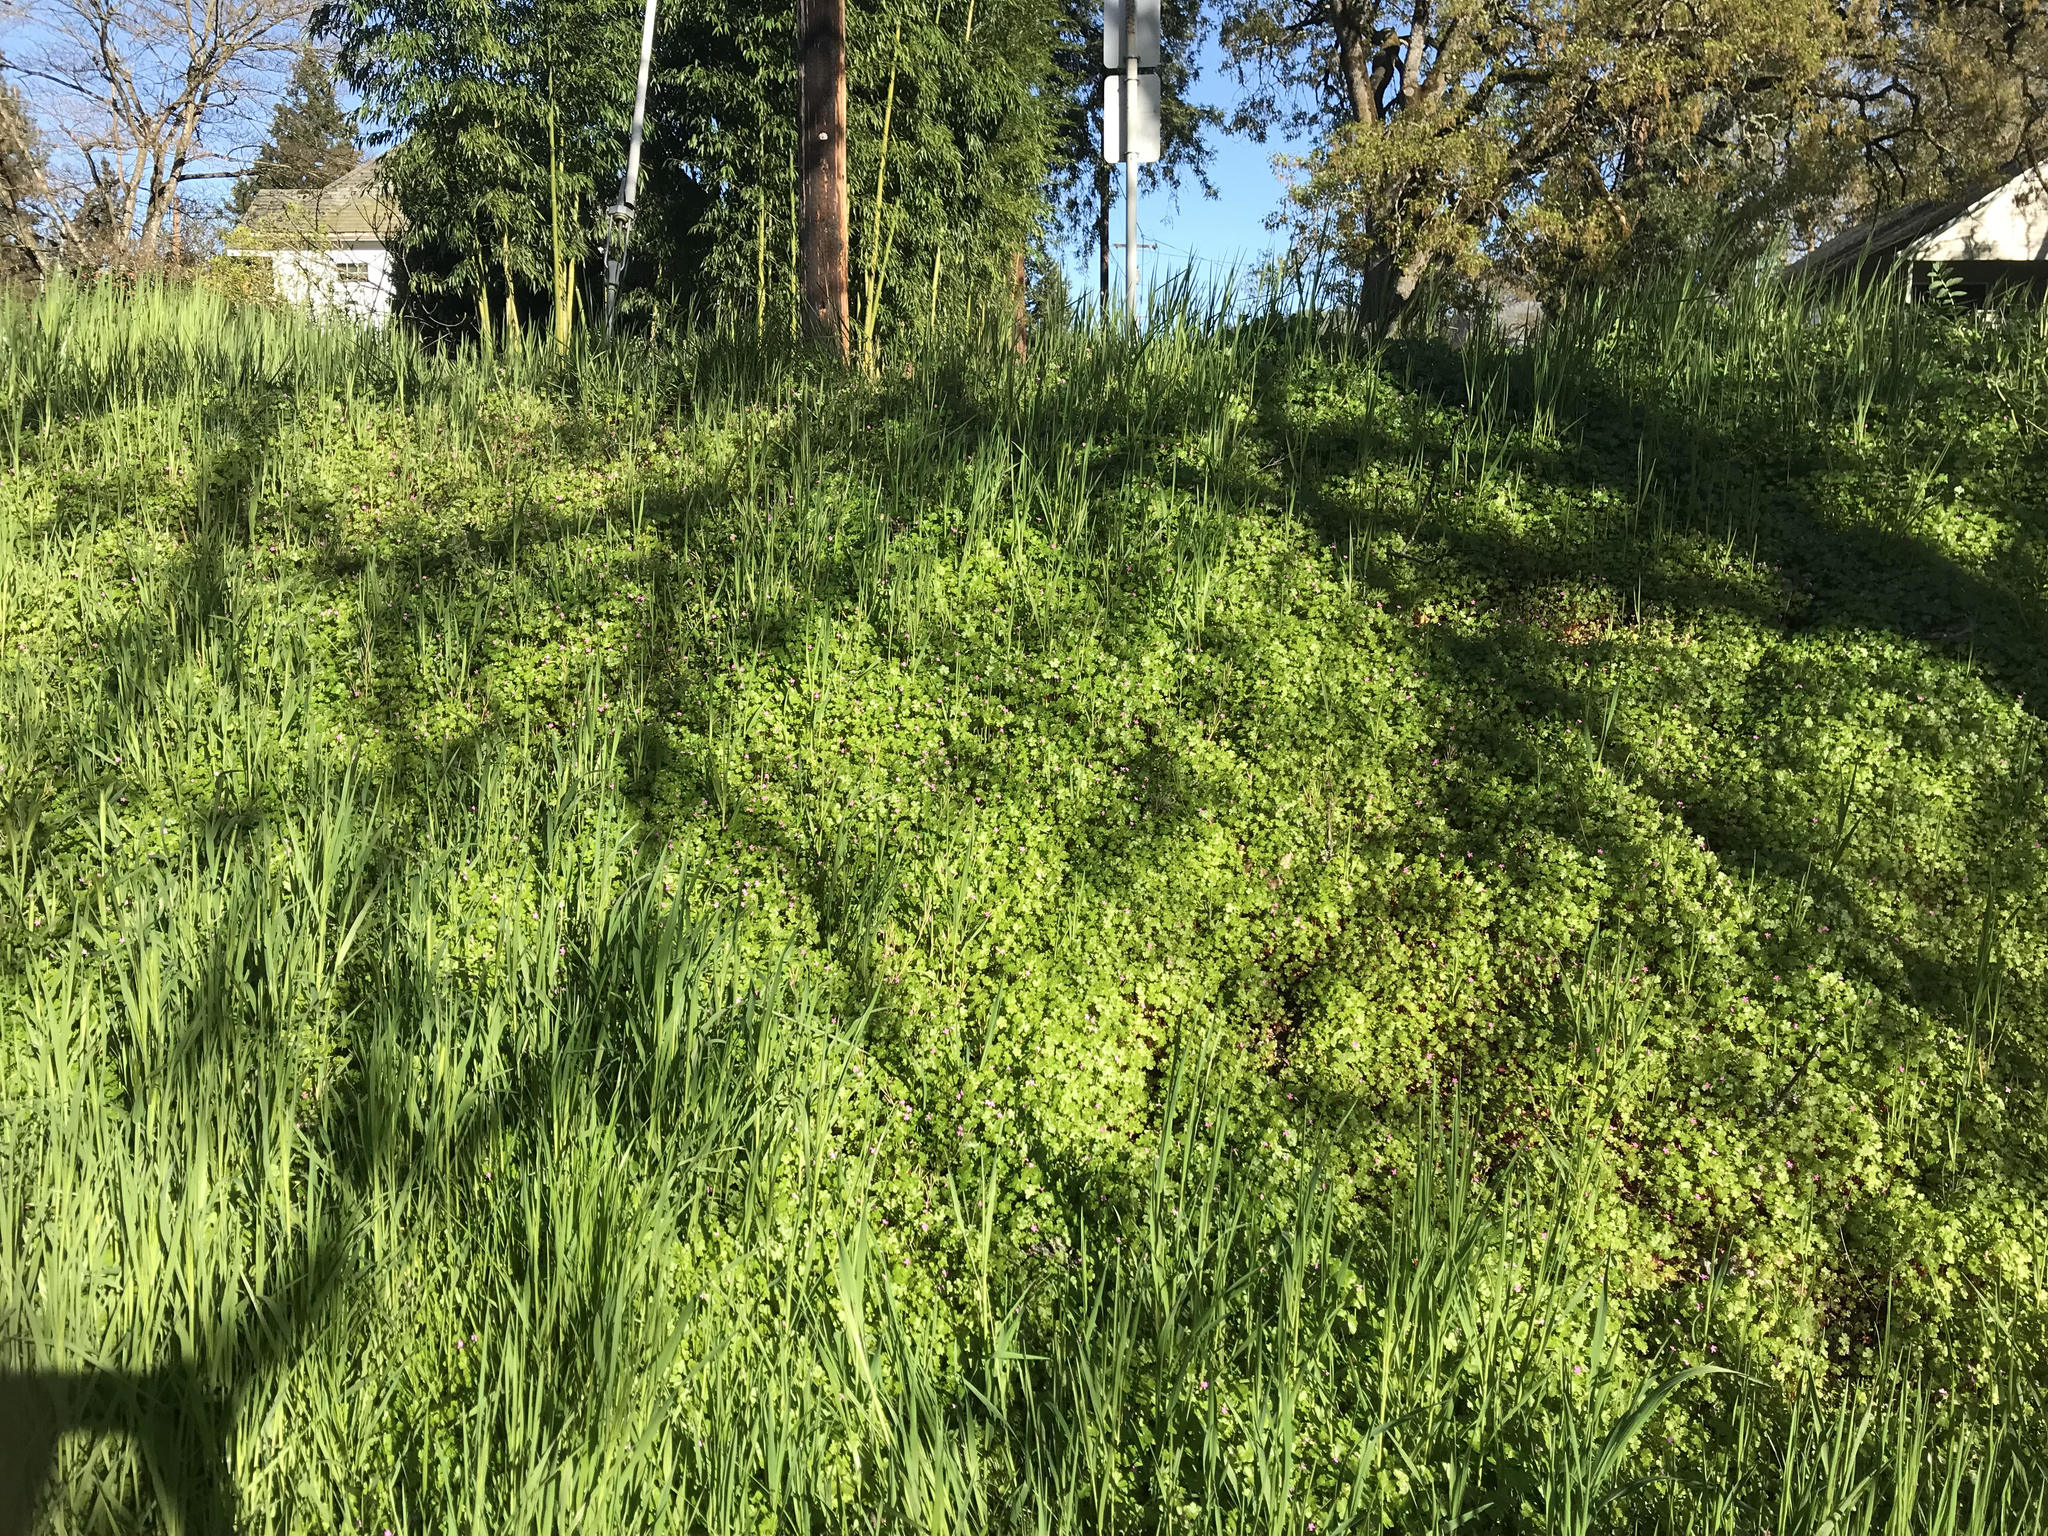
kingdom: Plantae
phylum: Tracheophyta
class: Magnoliopsida
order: Geraniales
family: Geraniaceae
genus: Geranium
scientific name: Geranium lucidum
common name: Shining crane's-bill
